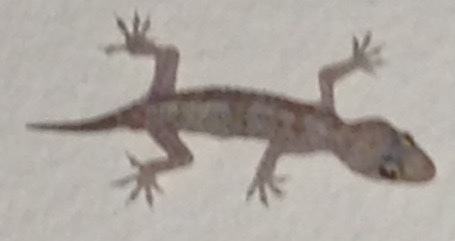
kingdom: Animalia
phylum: Chordata
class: Squamata
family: Gekkonidae
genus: Hemidactylus
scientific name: Hemidactylus turcicus
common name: Turkish gecko
